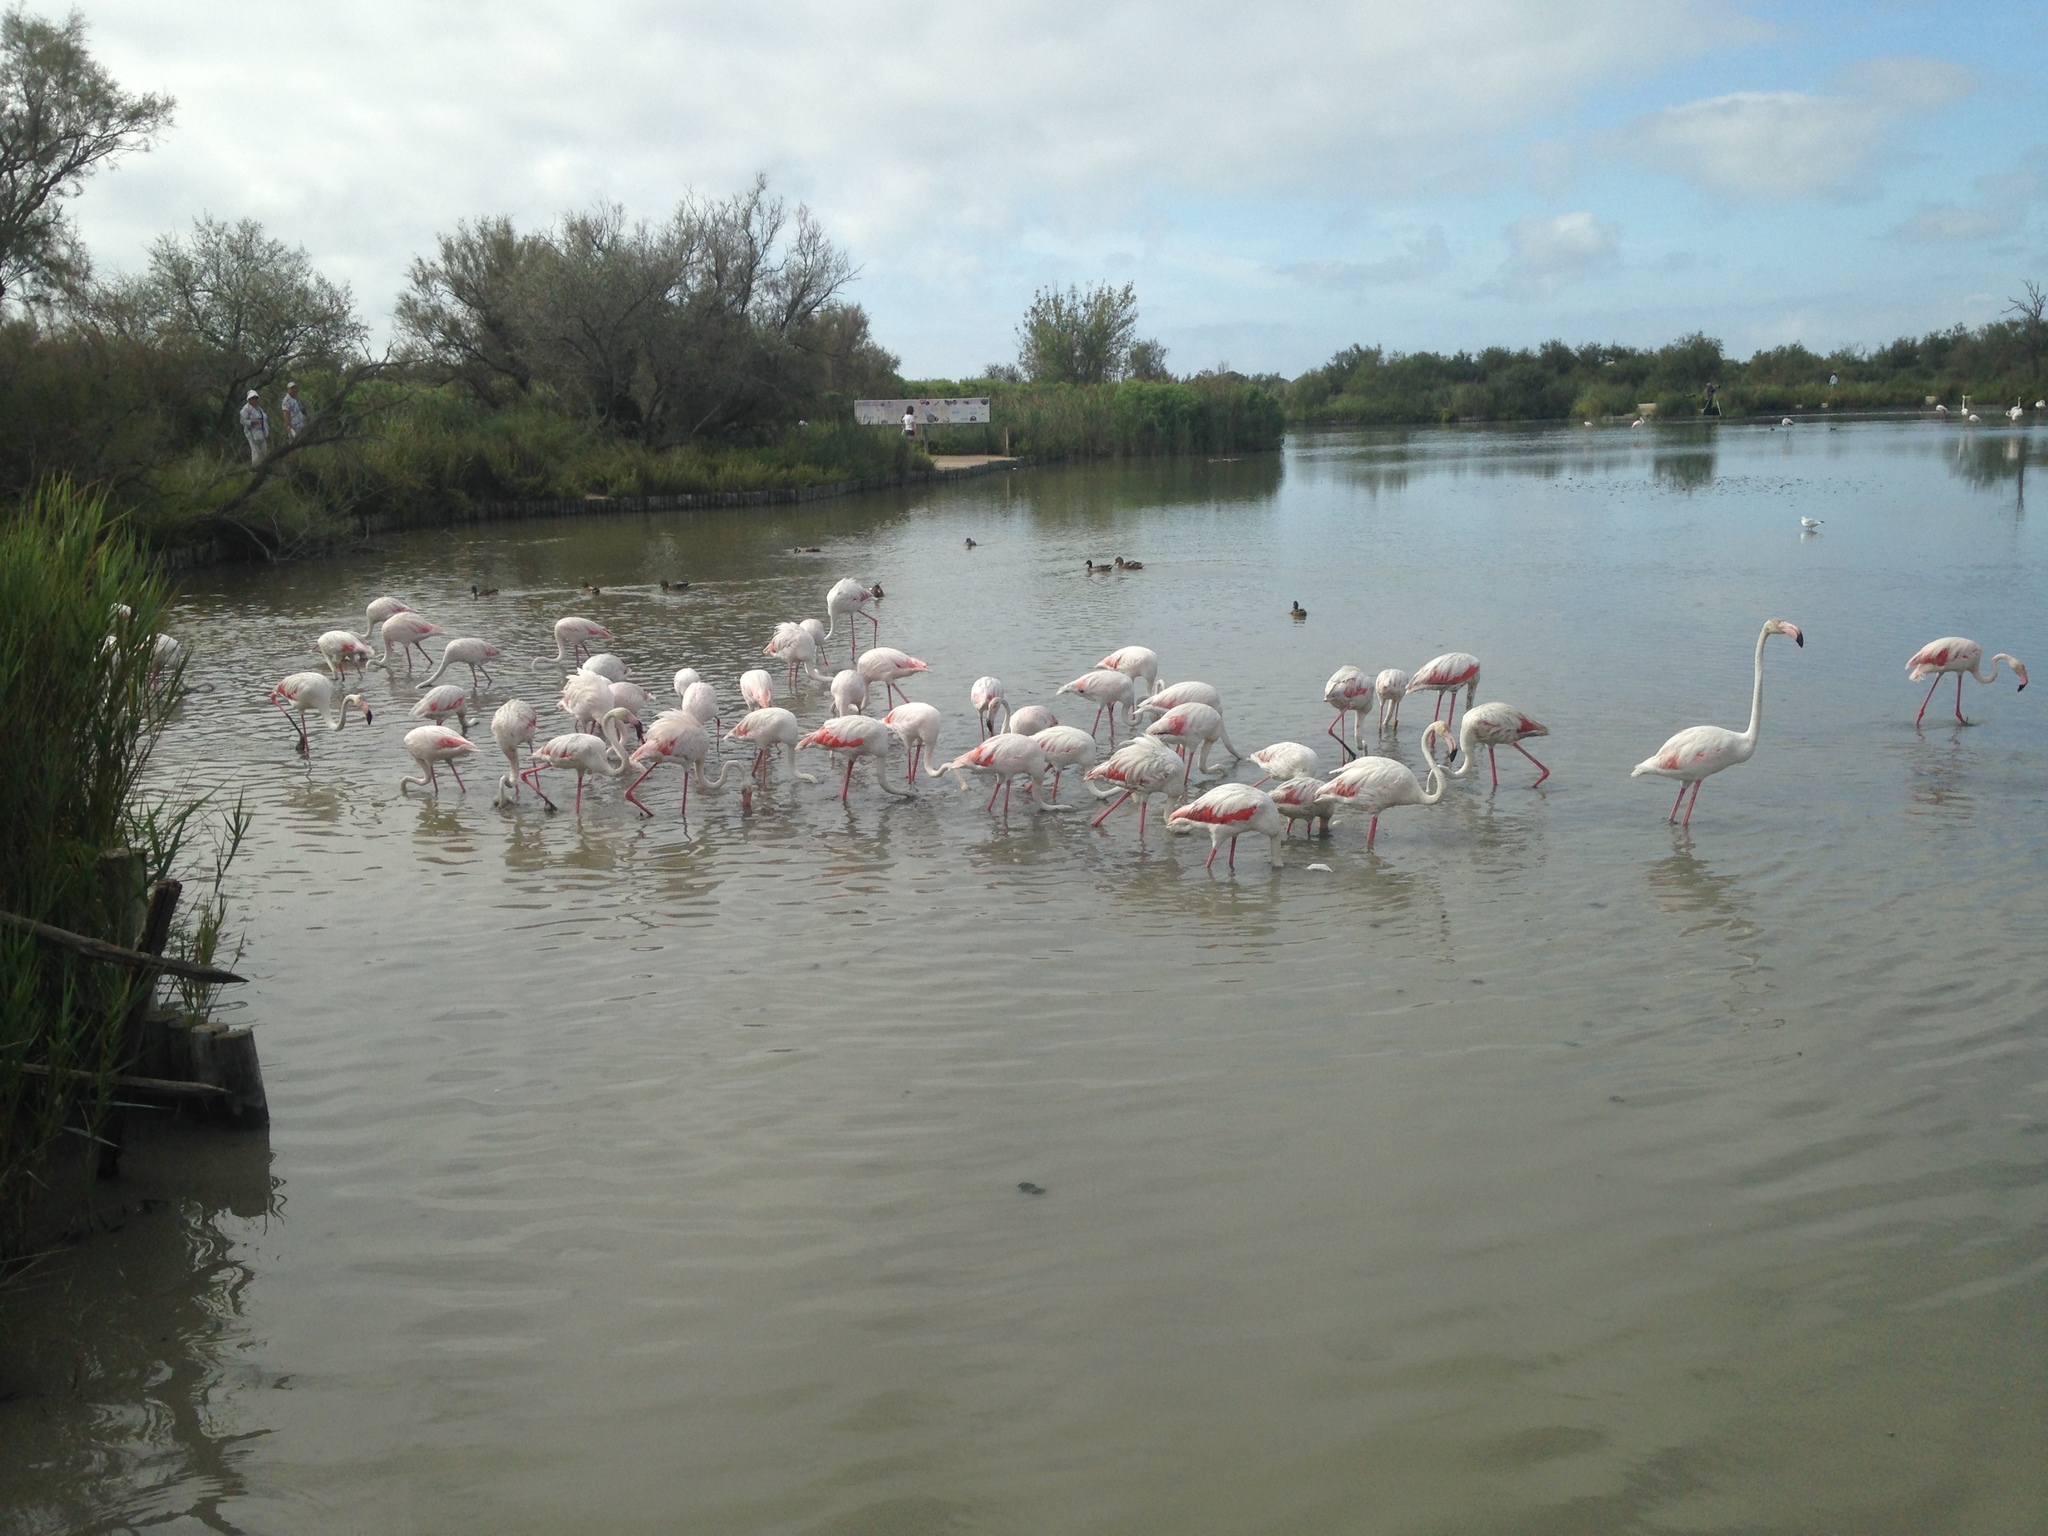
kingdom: Animalia
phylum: Chordata
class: Aves
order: Phoenicopteriformes
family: Phoenicopteridae
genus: Phoenicopterus
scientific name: Phoenicopterus roseus
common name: Greater flamingo
